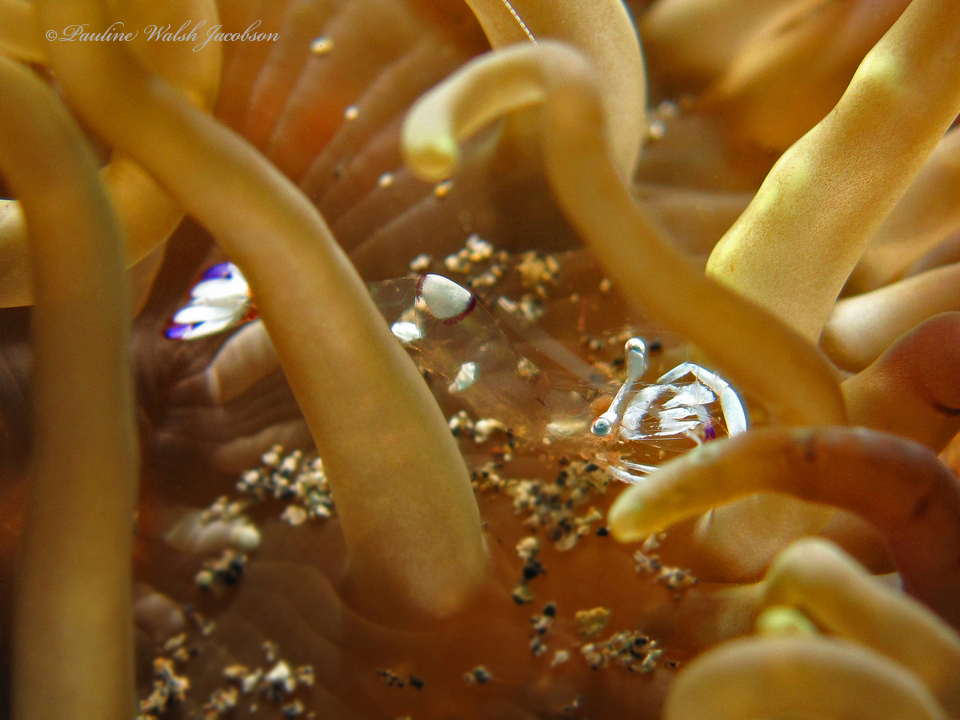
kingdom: Animalia
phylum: Arthropoda
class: Malacostraca
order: Decapoda
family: Palaemonidae
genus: Ancylomenes
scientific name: Ancylomenes magnificus
